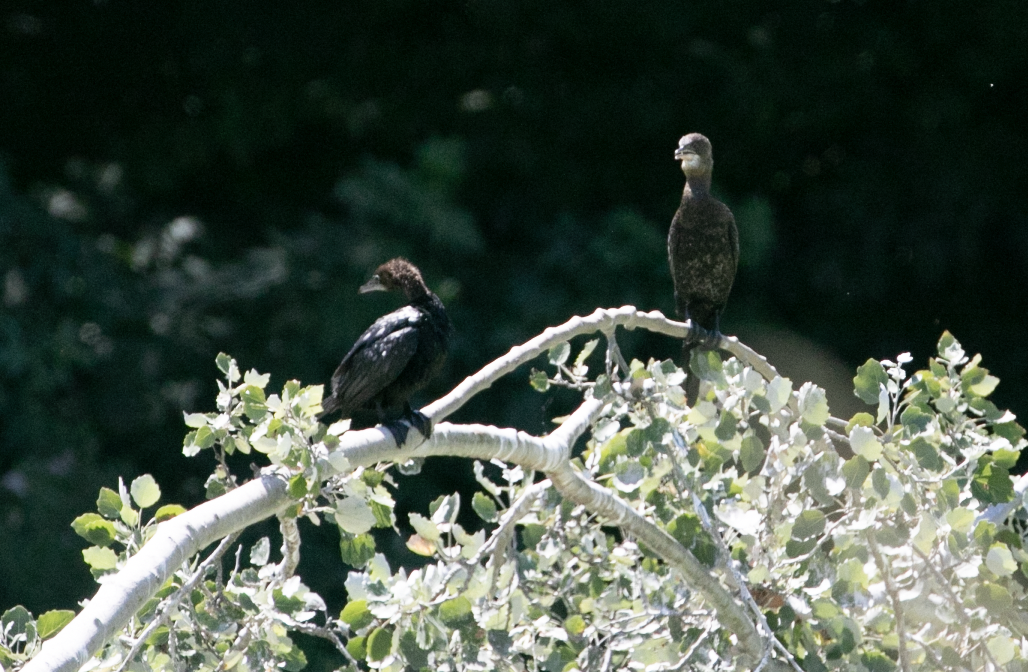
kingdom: Animalia
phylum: Chordata
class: Aves
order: Suliformes
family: Phalacrocoracidae
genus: Microcarbo
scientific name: Microcarbo pygmaeus
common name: Pygmy cormorant
